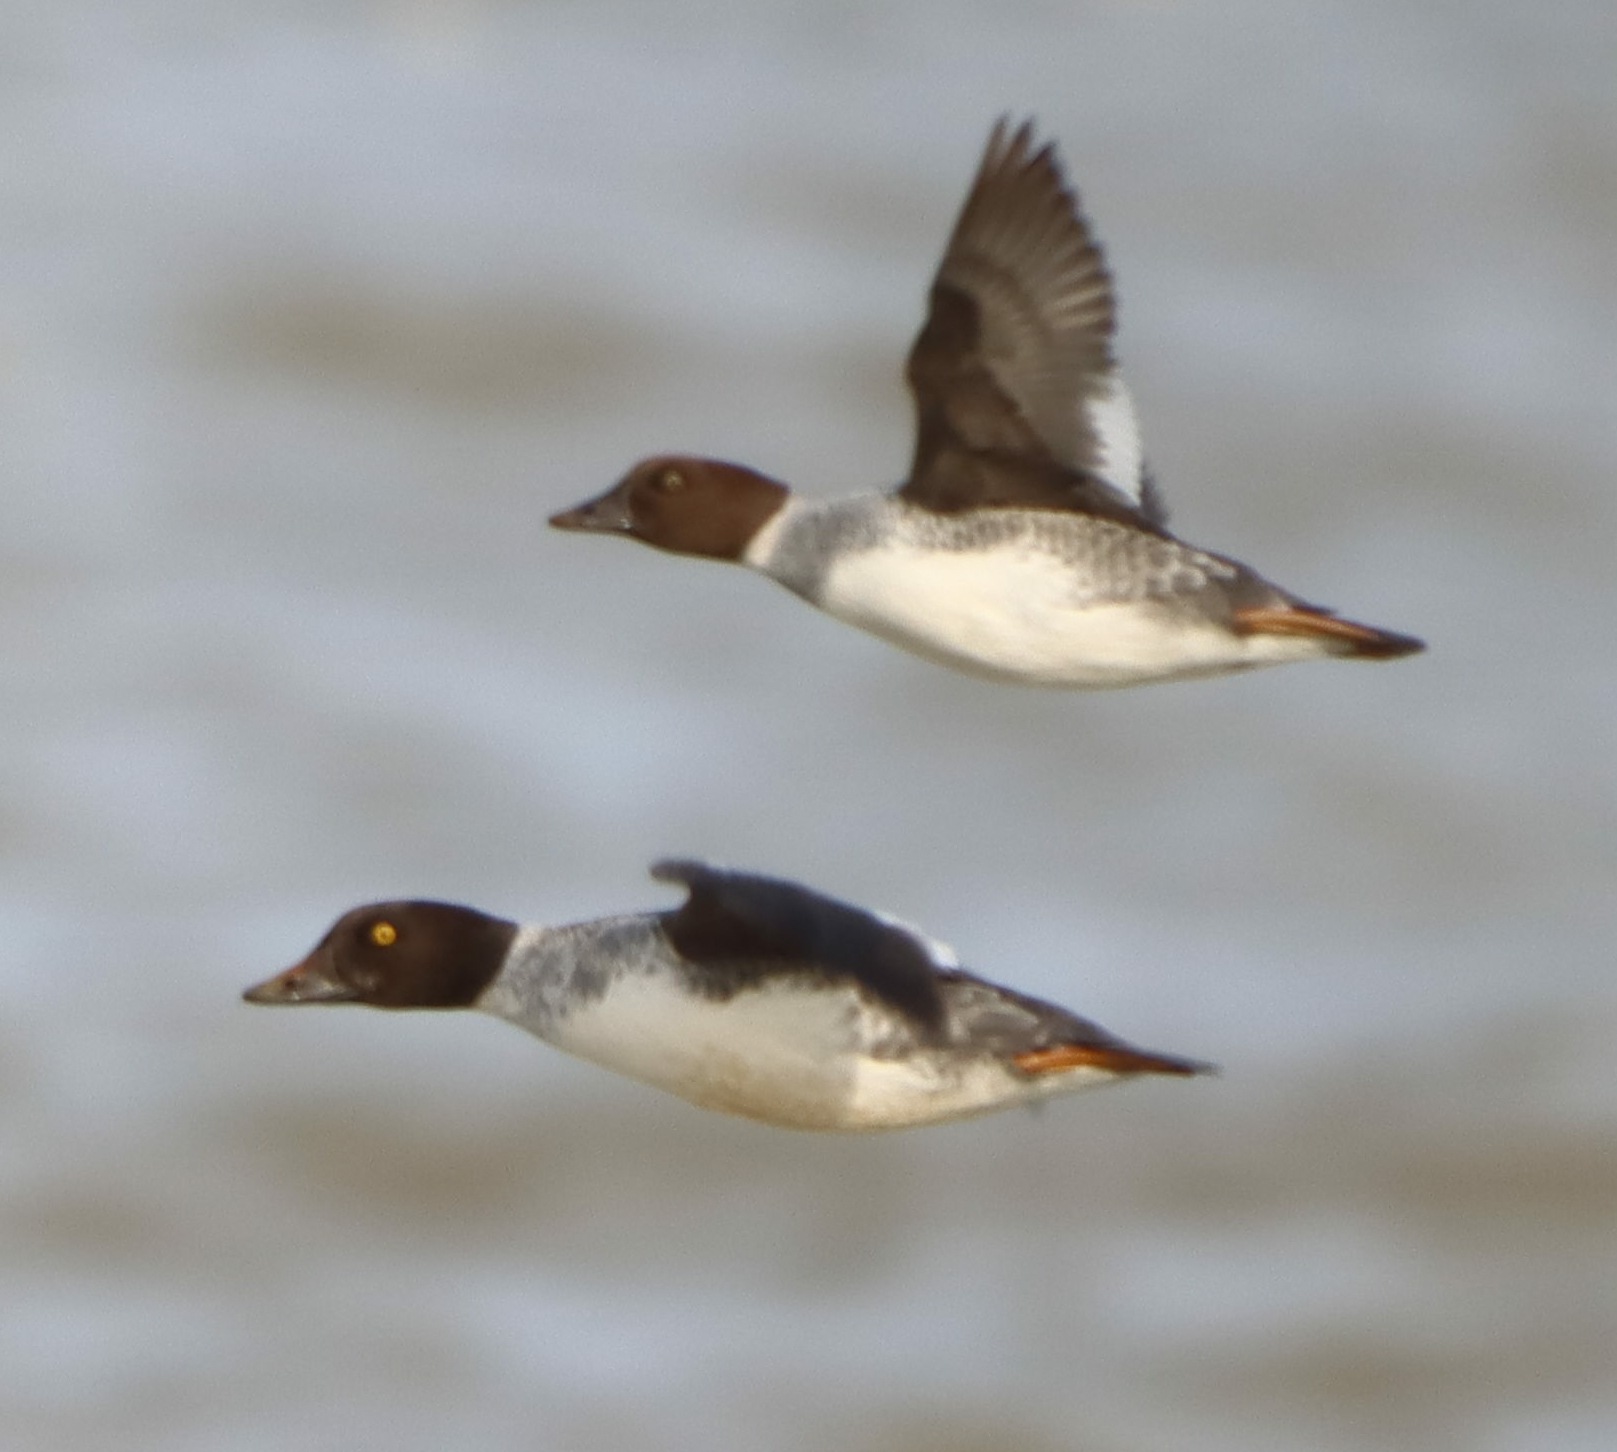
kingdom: Animalia
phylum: Chordata
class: Aves
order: Anseriformes
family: Anatidae
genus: Bucephala
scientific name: Bucephala clangula
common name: Common goldeneye
